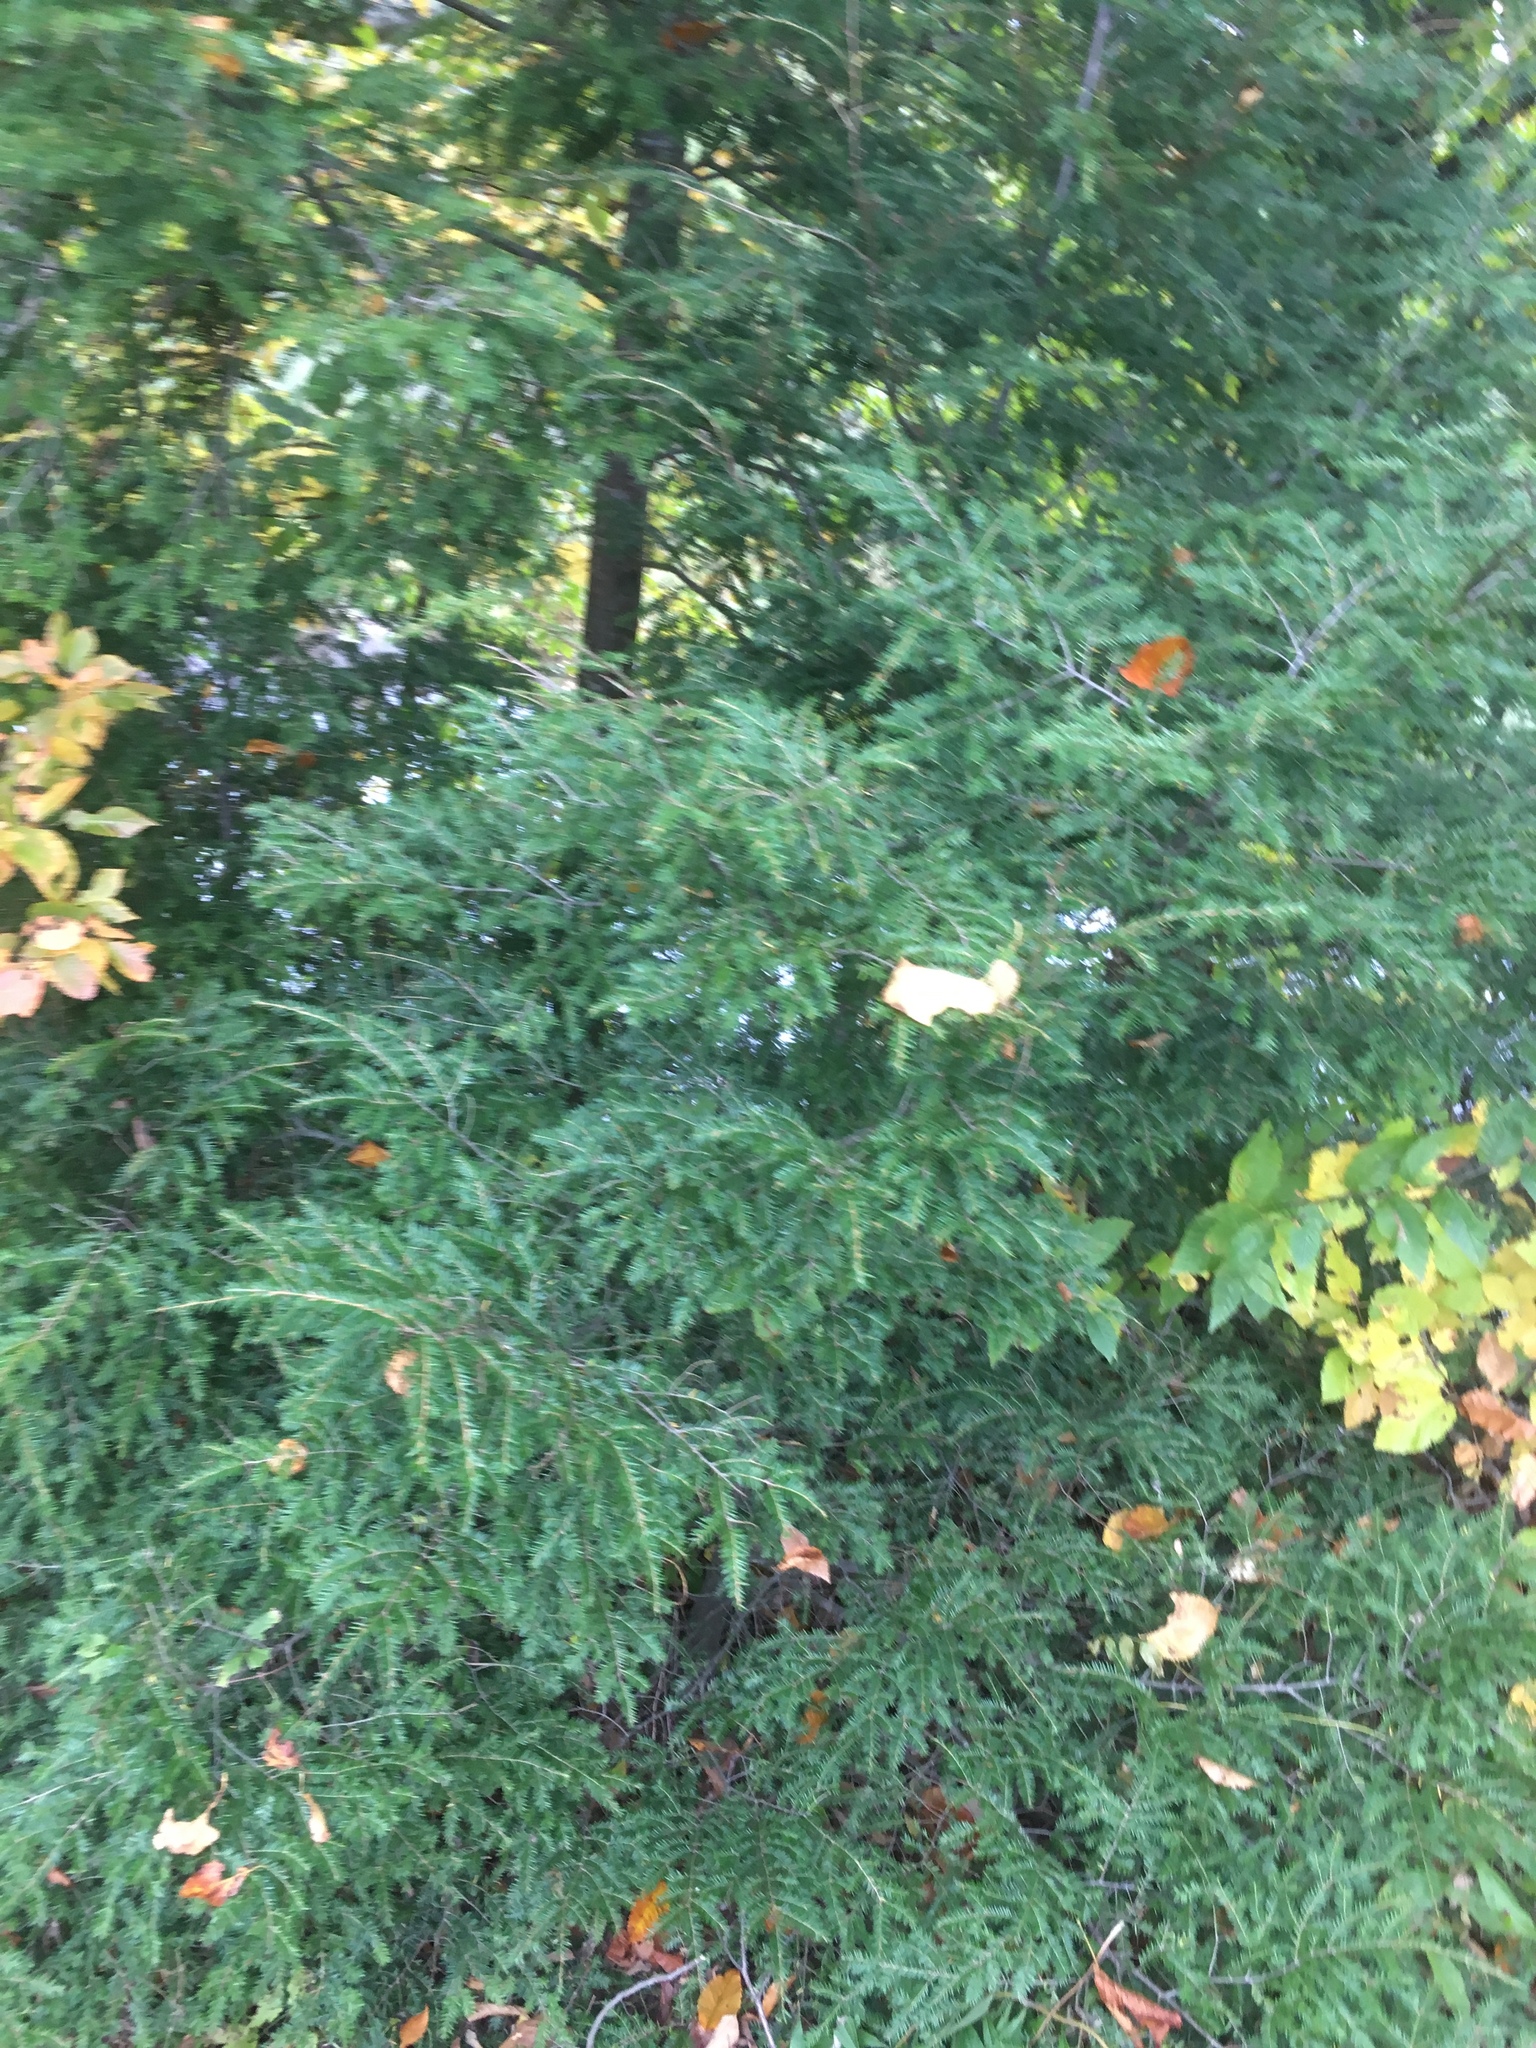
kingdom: Plantae
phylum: Tracheophyta
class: Pinopsida
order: Pinales
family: Pinaceae
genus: Tsuga
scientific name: Tsuga canadensis
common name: Eastern hemlock
